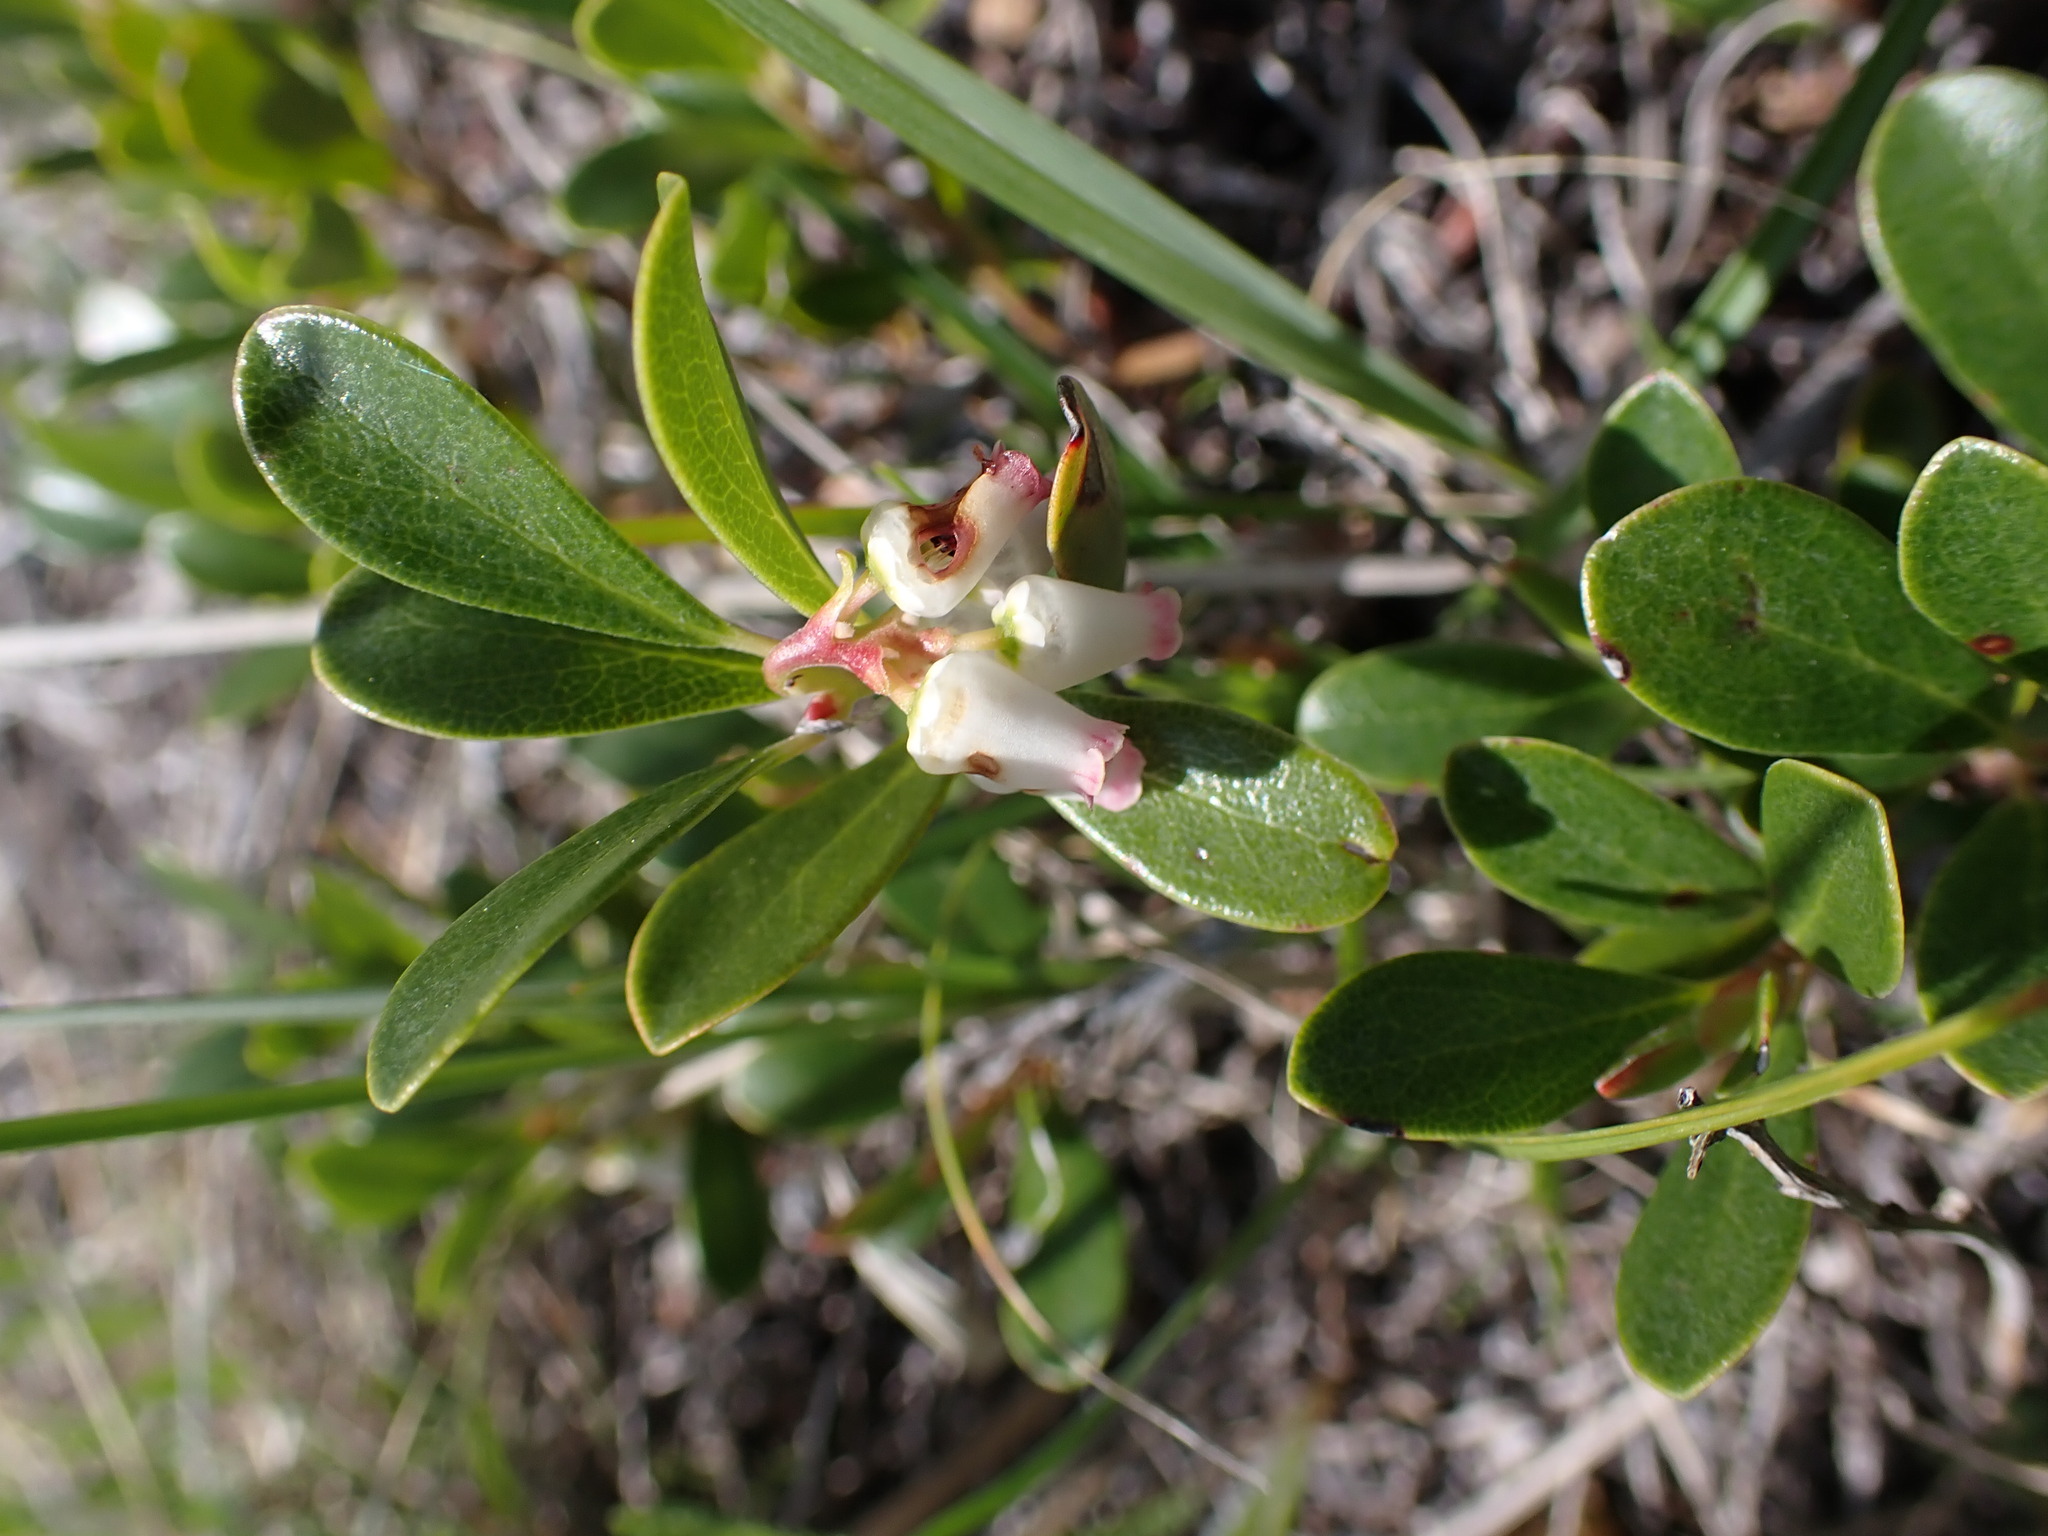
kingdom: Plantae
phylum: Tracheophyta
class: Magnoliopsida
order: Ericales
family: Ericaceae
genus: Arctostaphylos
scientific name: Arctostaphylos uva-ursi
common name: Bearberry
